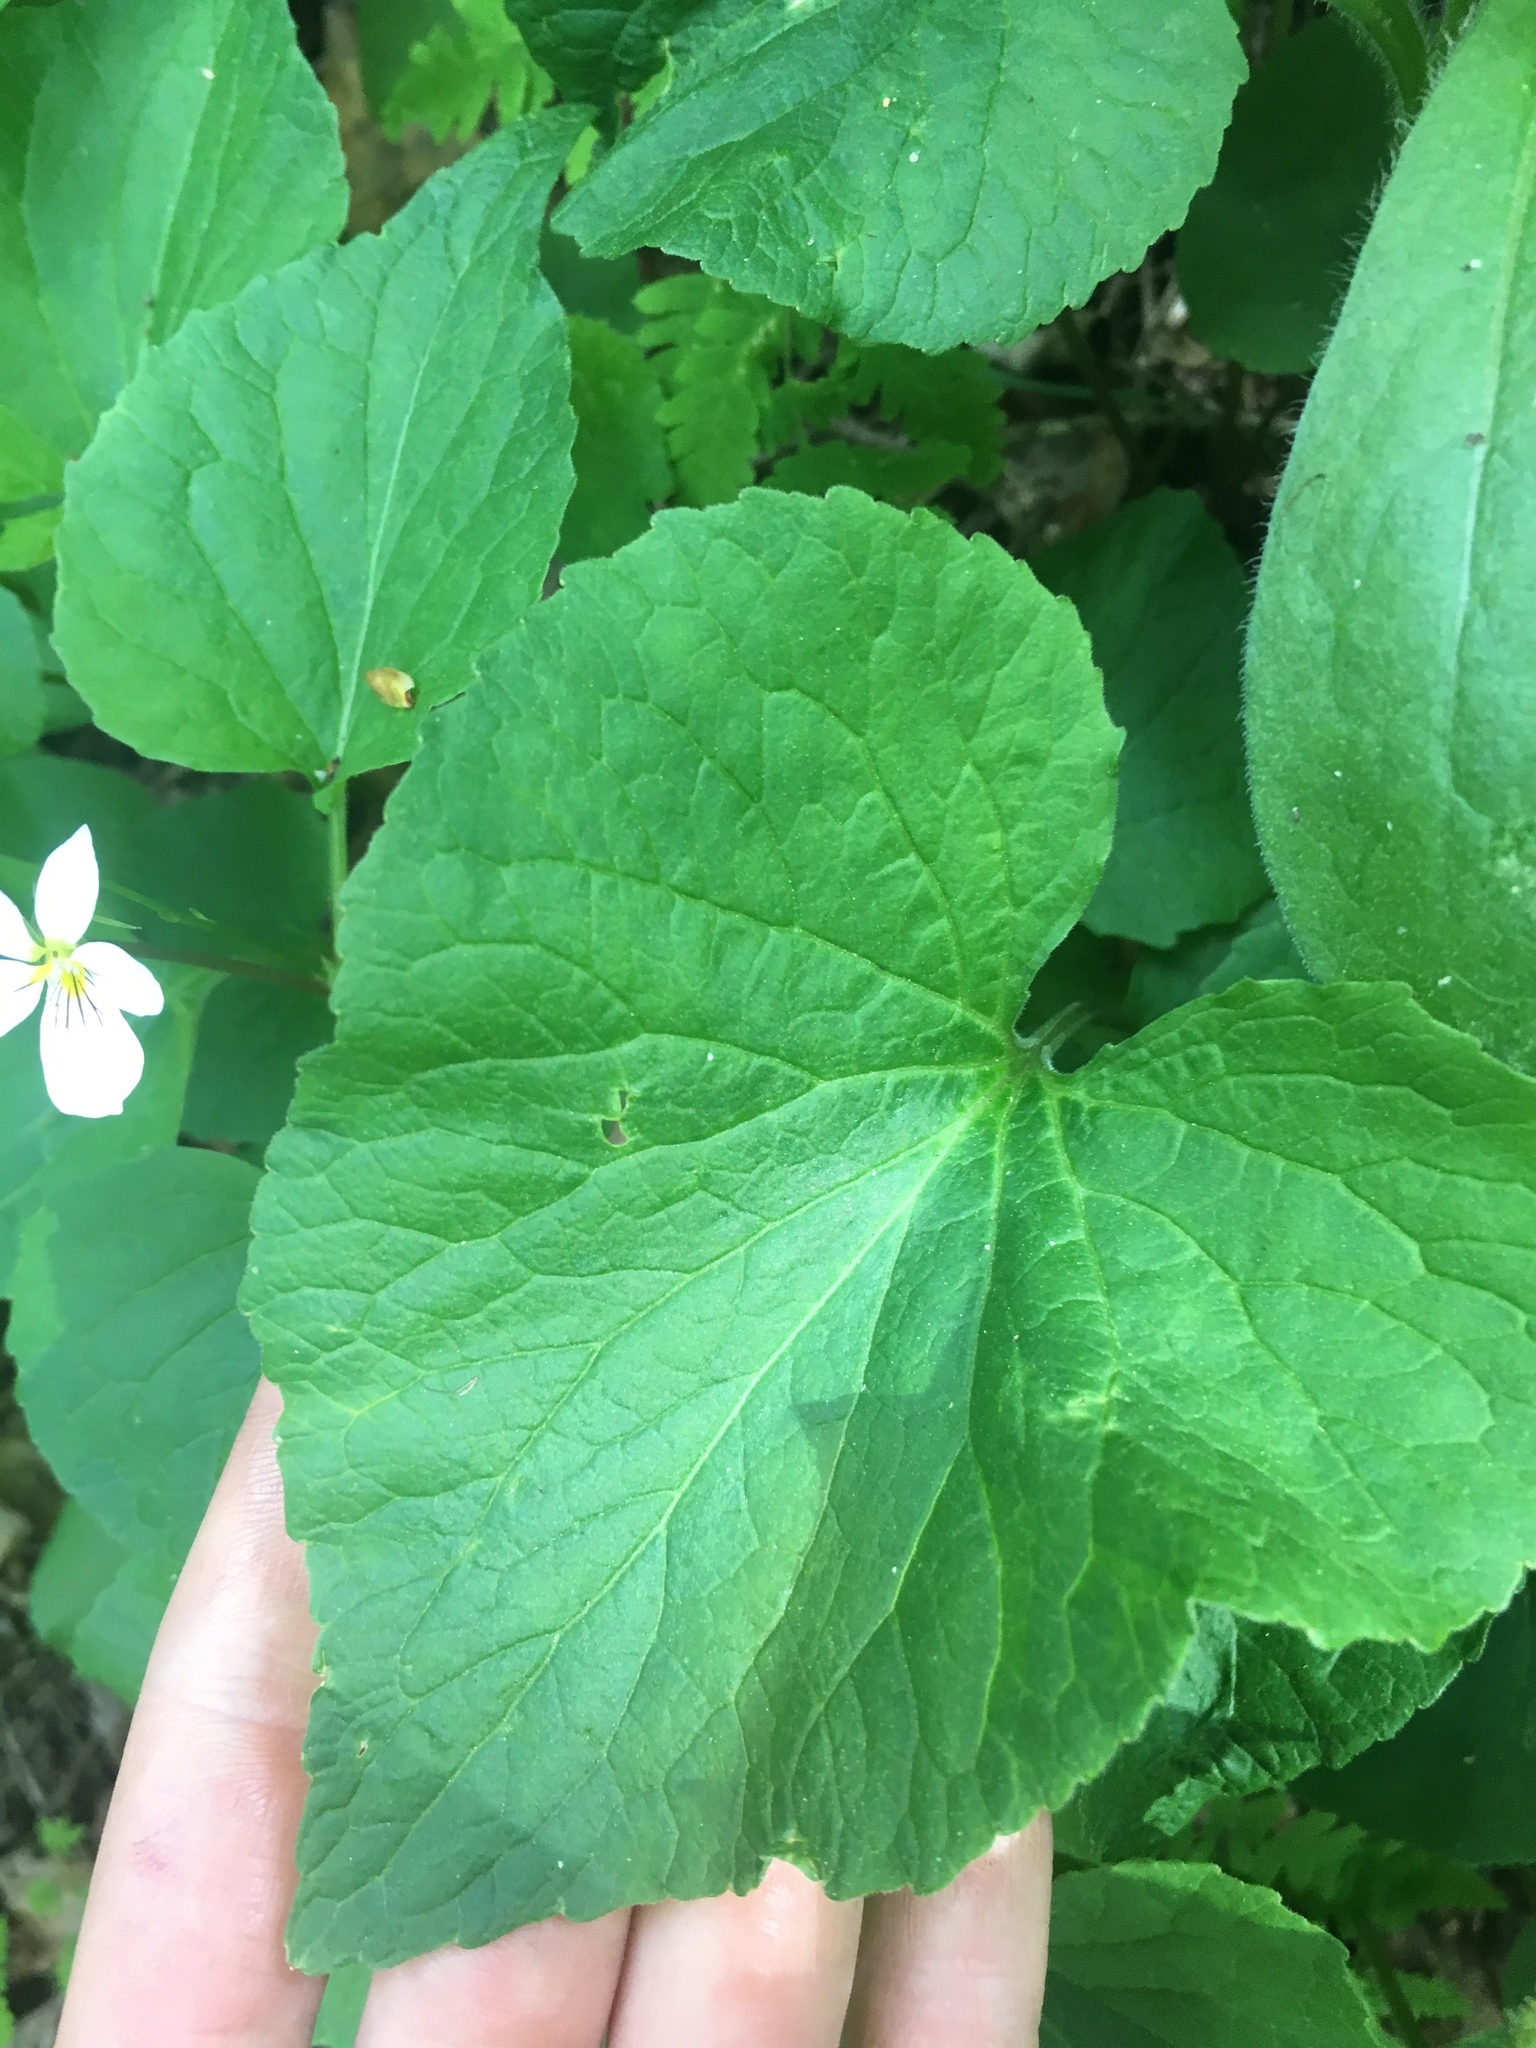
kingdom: Plantae
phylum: Tracheophyta
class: Magnoliopsida
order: Malpighiales
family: Violaceae
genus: Viola
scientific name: Viola canadensis
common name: Canada violet
